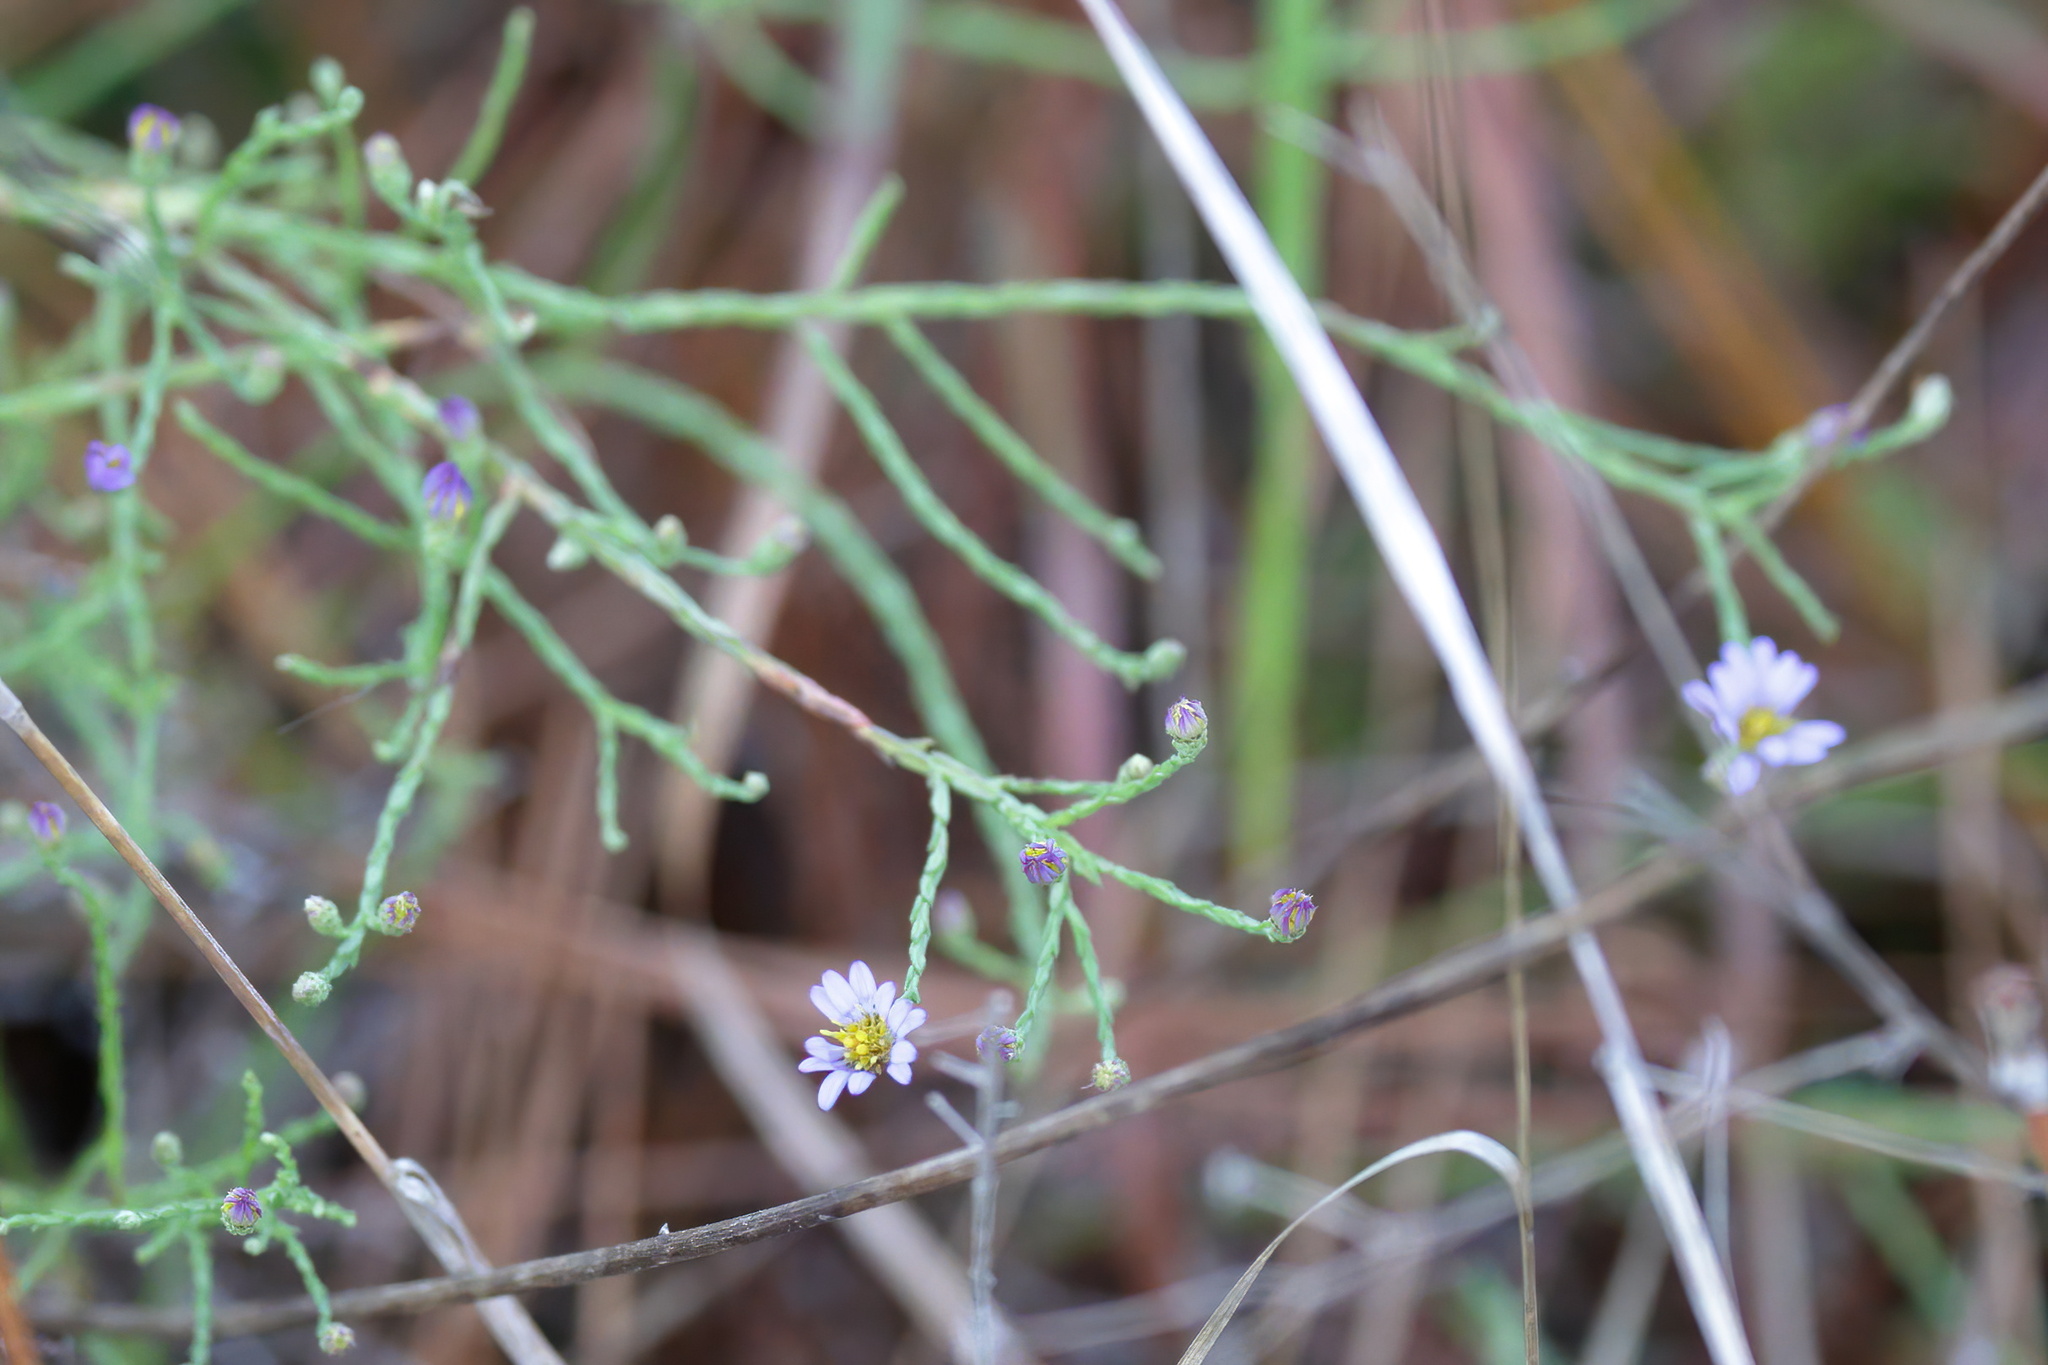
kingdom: Plantae
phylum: Tracheophyta
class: Magnoliopsida
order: Asterales
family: Asteraceae
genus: Symphyotrichum
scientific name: Symphyotrichum adnatum
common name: Scale-leaf aster
